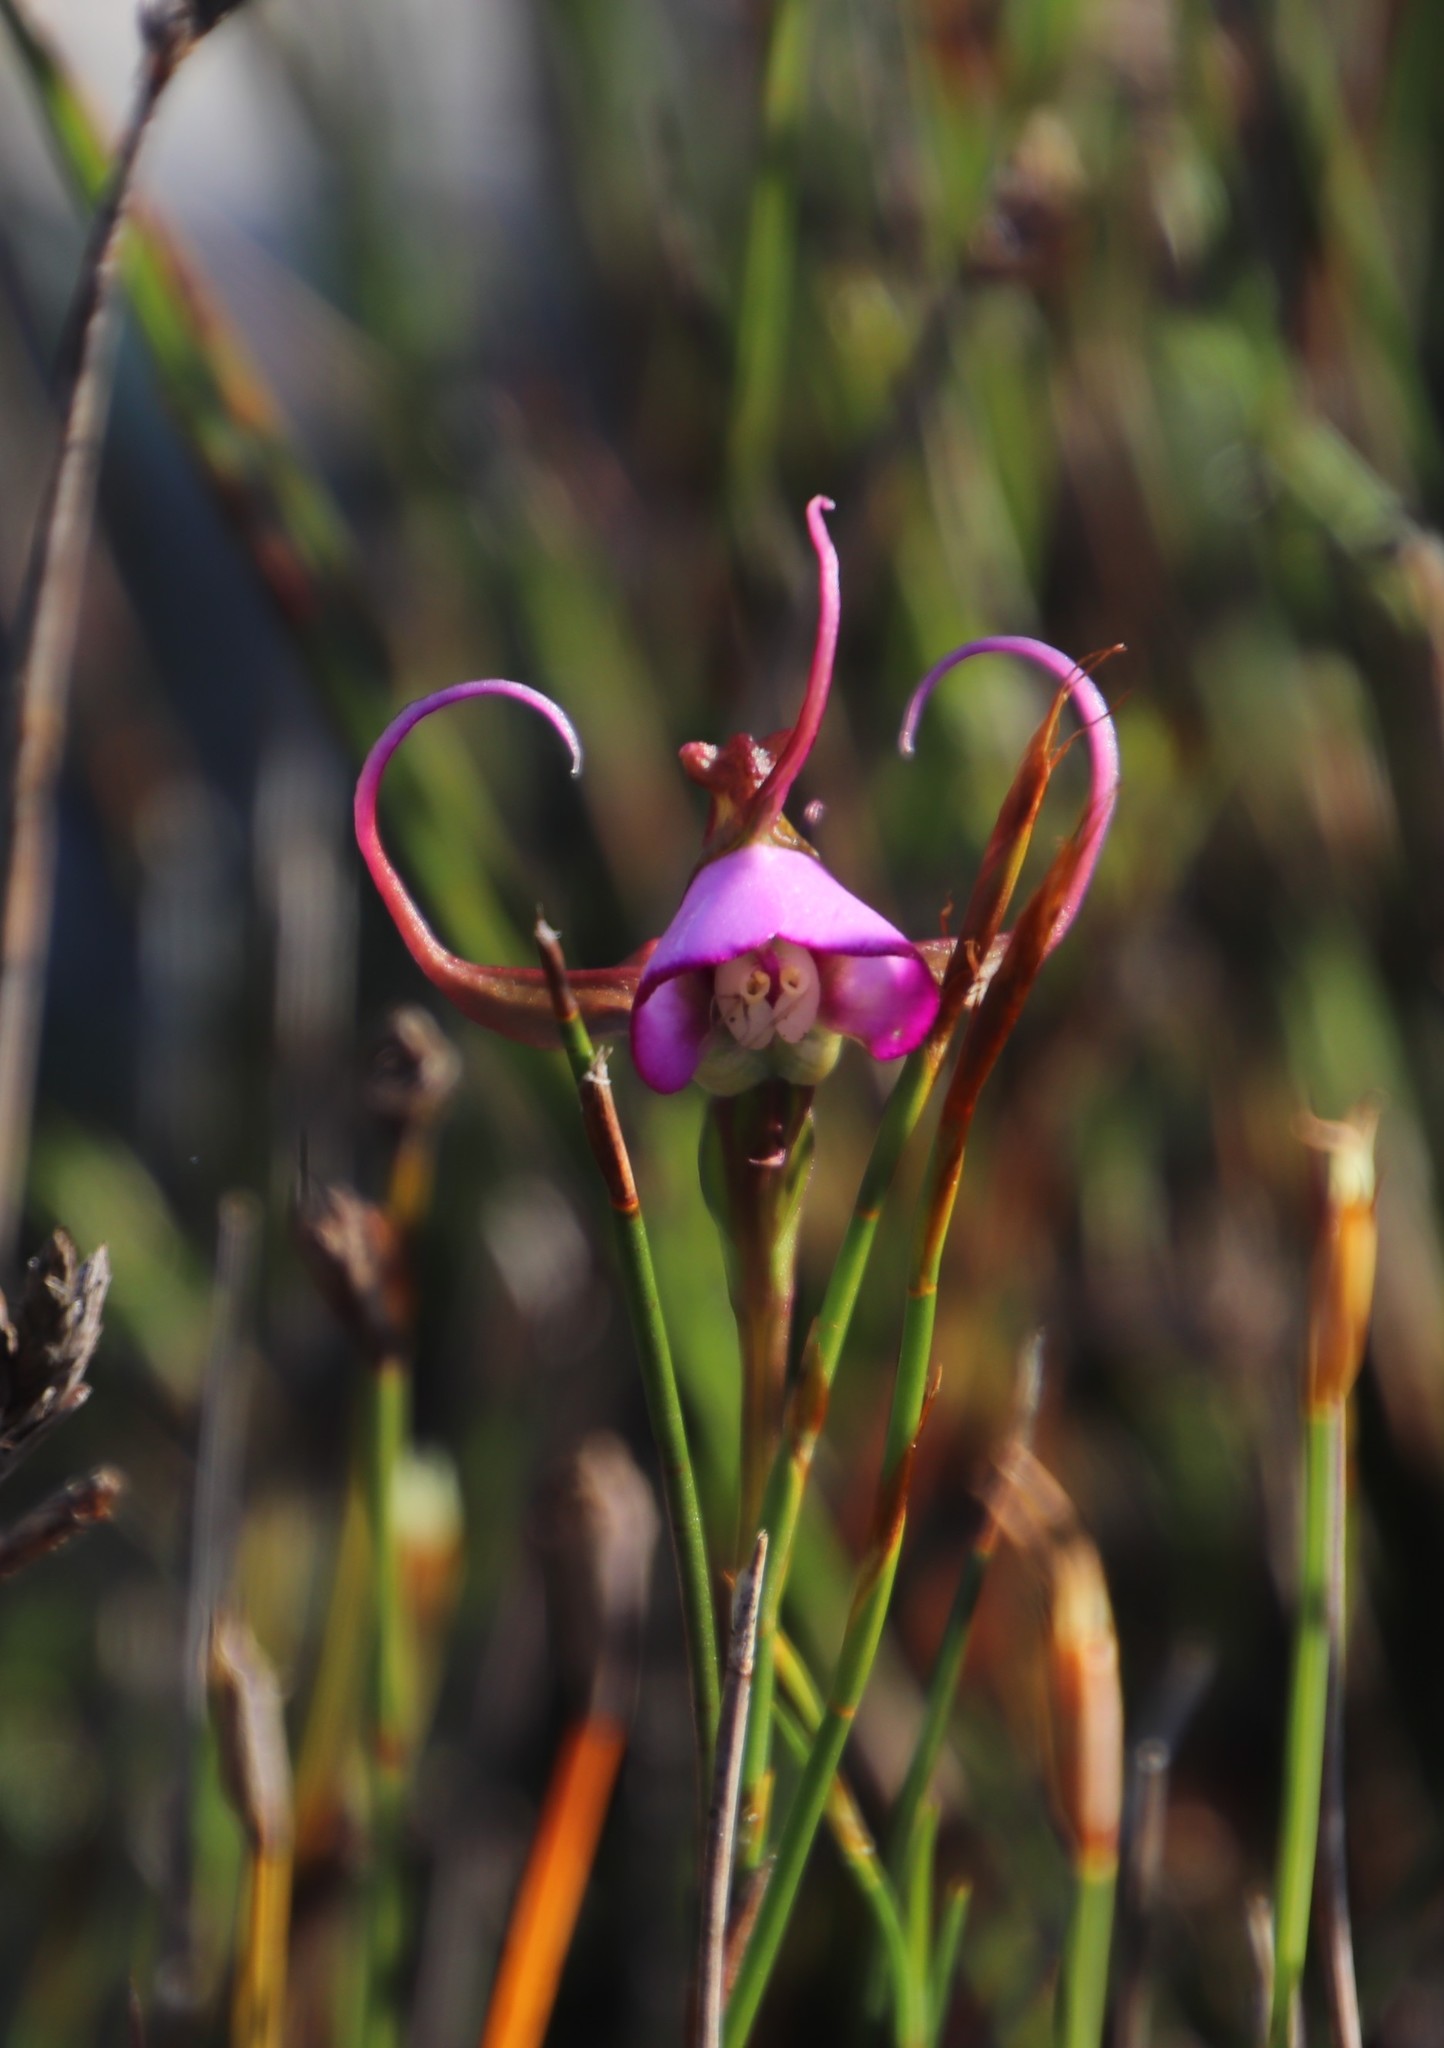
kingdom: Plantae
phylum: Tracheophyta
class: Liliopsida
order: Asparagales
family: Orchidaceae
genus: Disperis
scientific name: Disperis capensis
